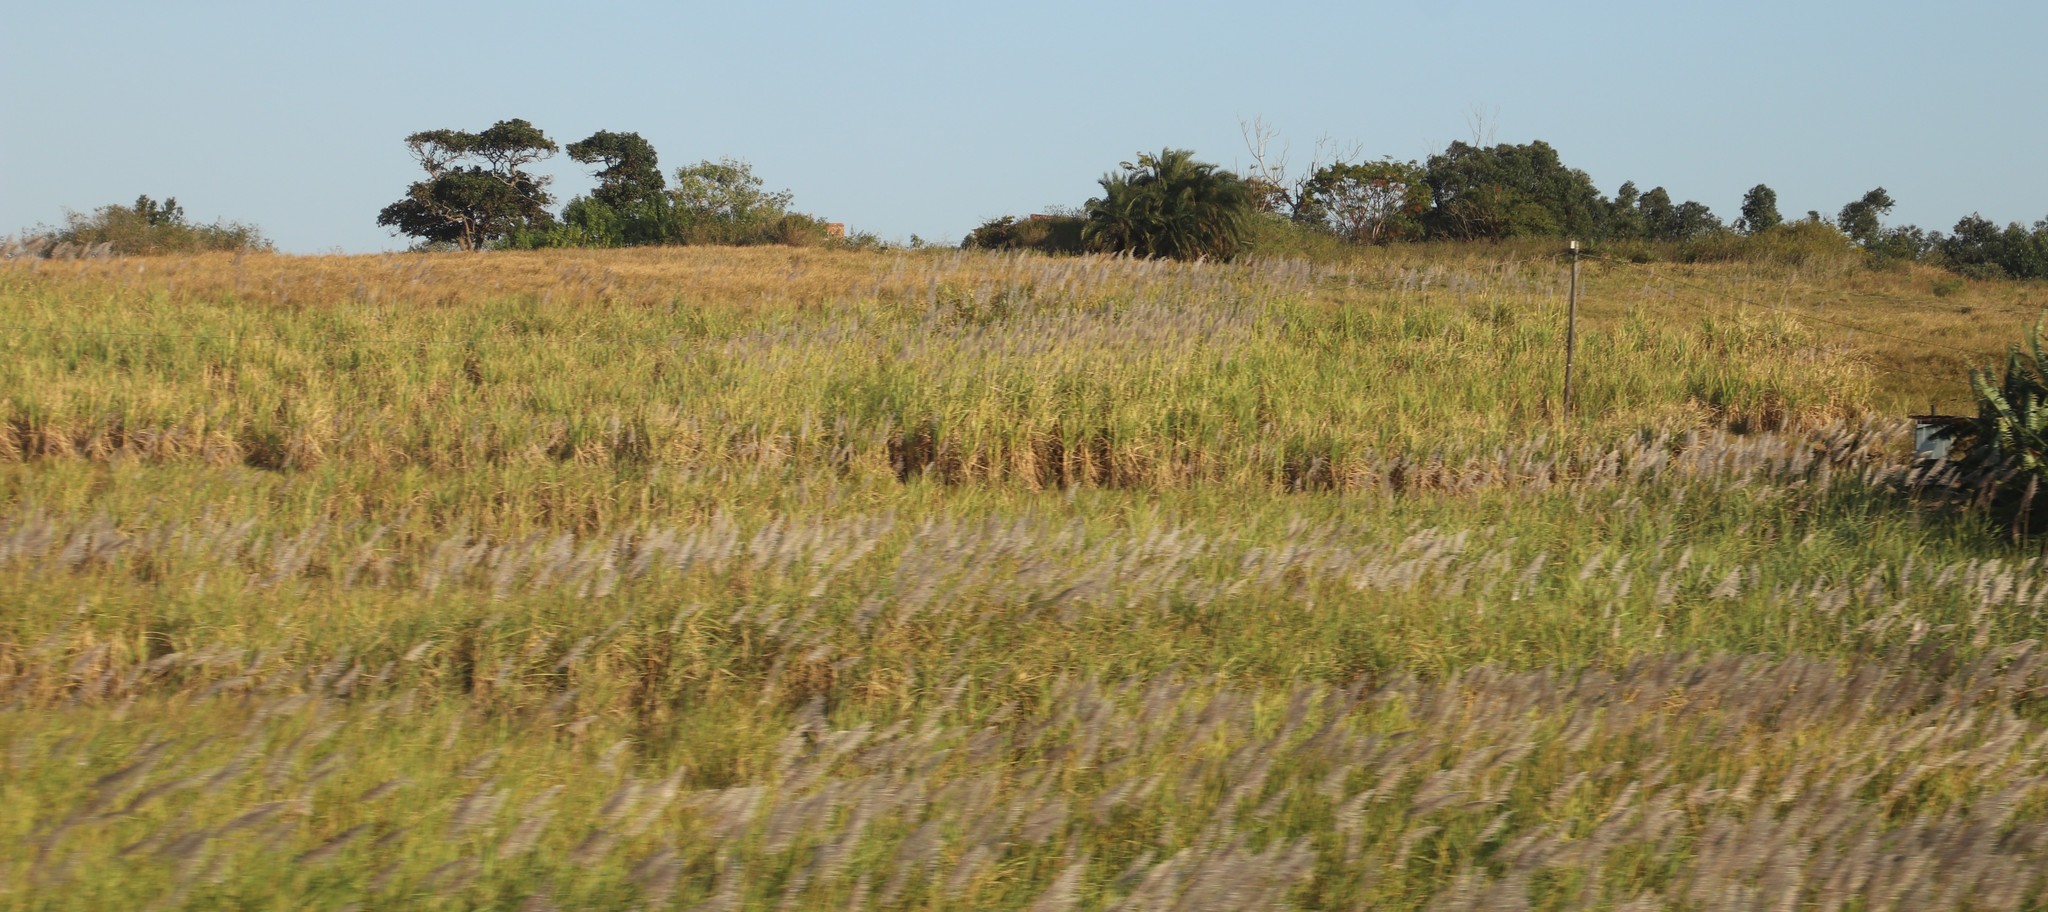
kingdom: Plantae
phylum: Tracheophyta
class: Liliopsida
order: Poales
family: Poaceae
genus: Saccharum
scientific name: Saccharum officinarum
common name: Sugarcane
